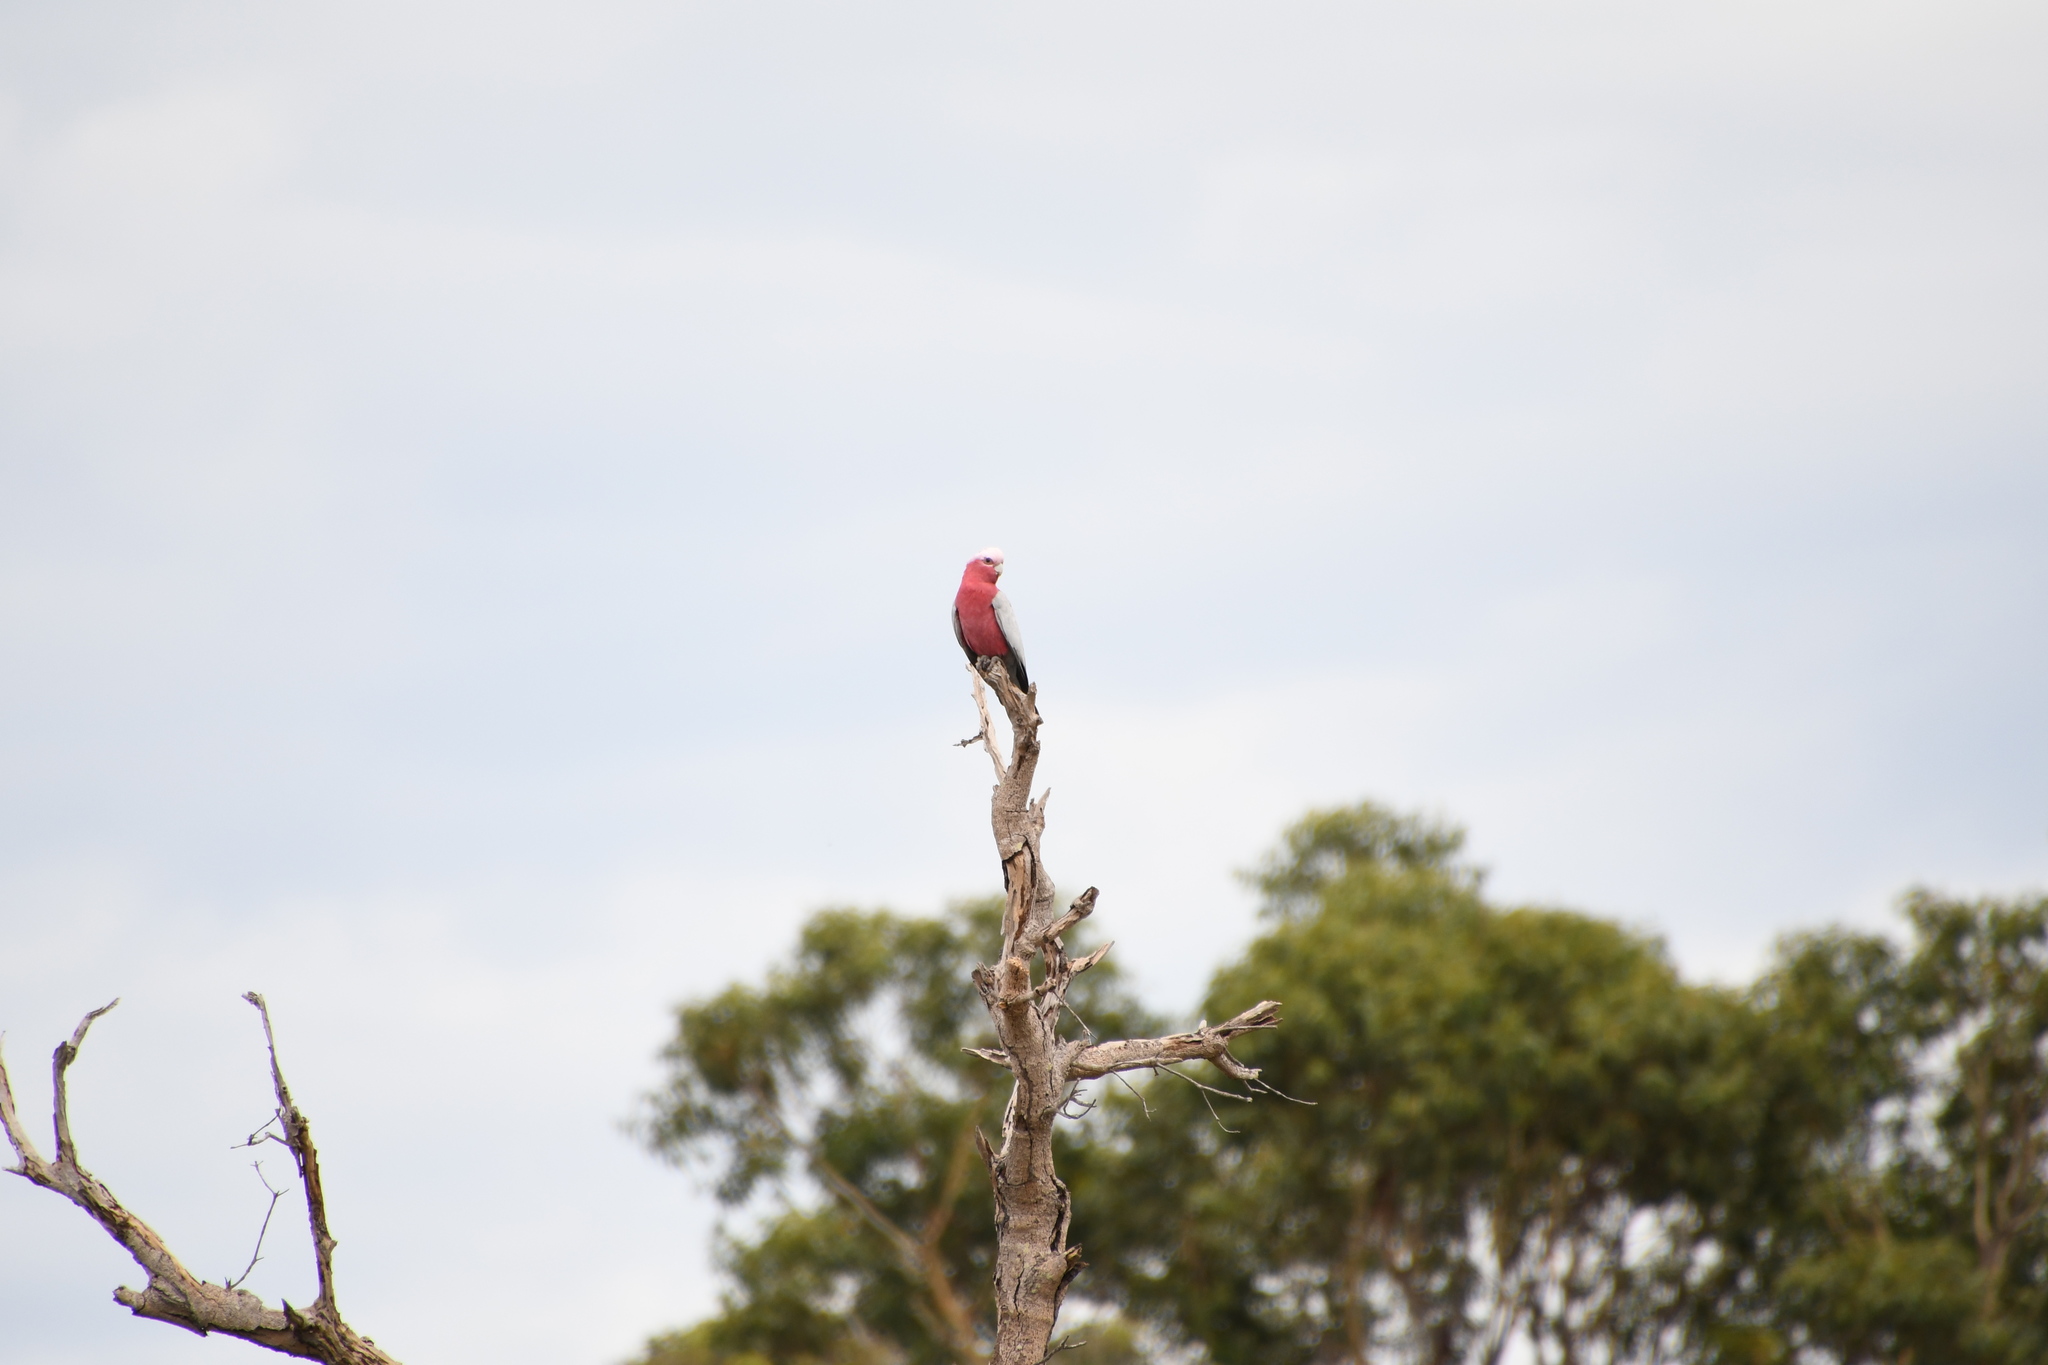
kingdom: Animalia
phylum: Chordata
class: Aves
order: Psittaciformes
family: Psittacidae
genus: Eolophus
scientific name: Eolophus roseicapilla
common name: Galah
